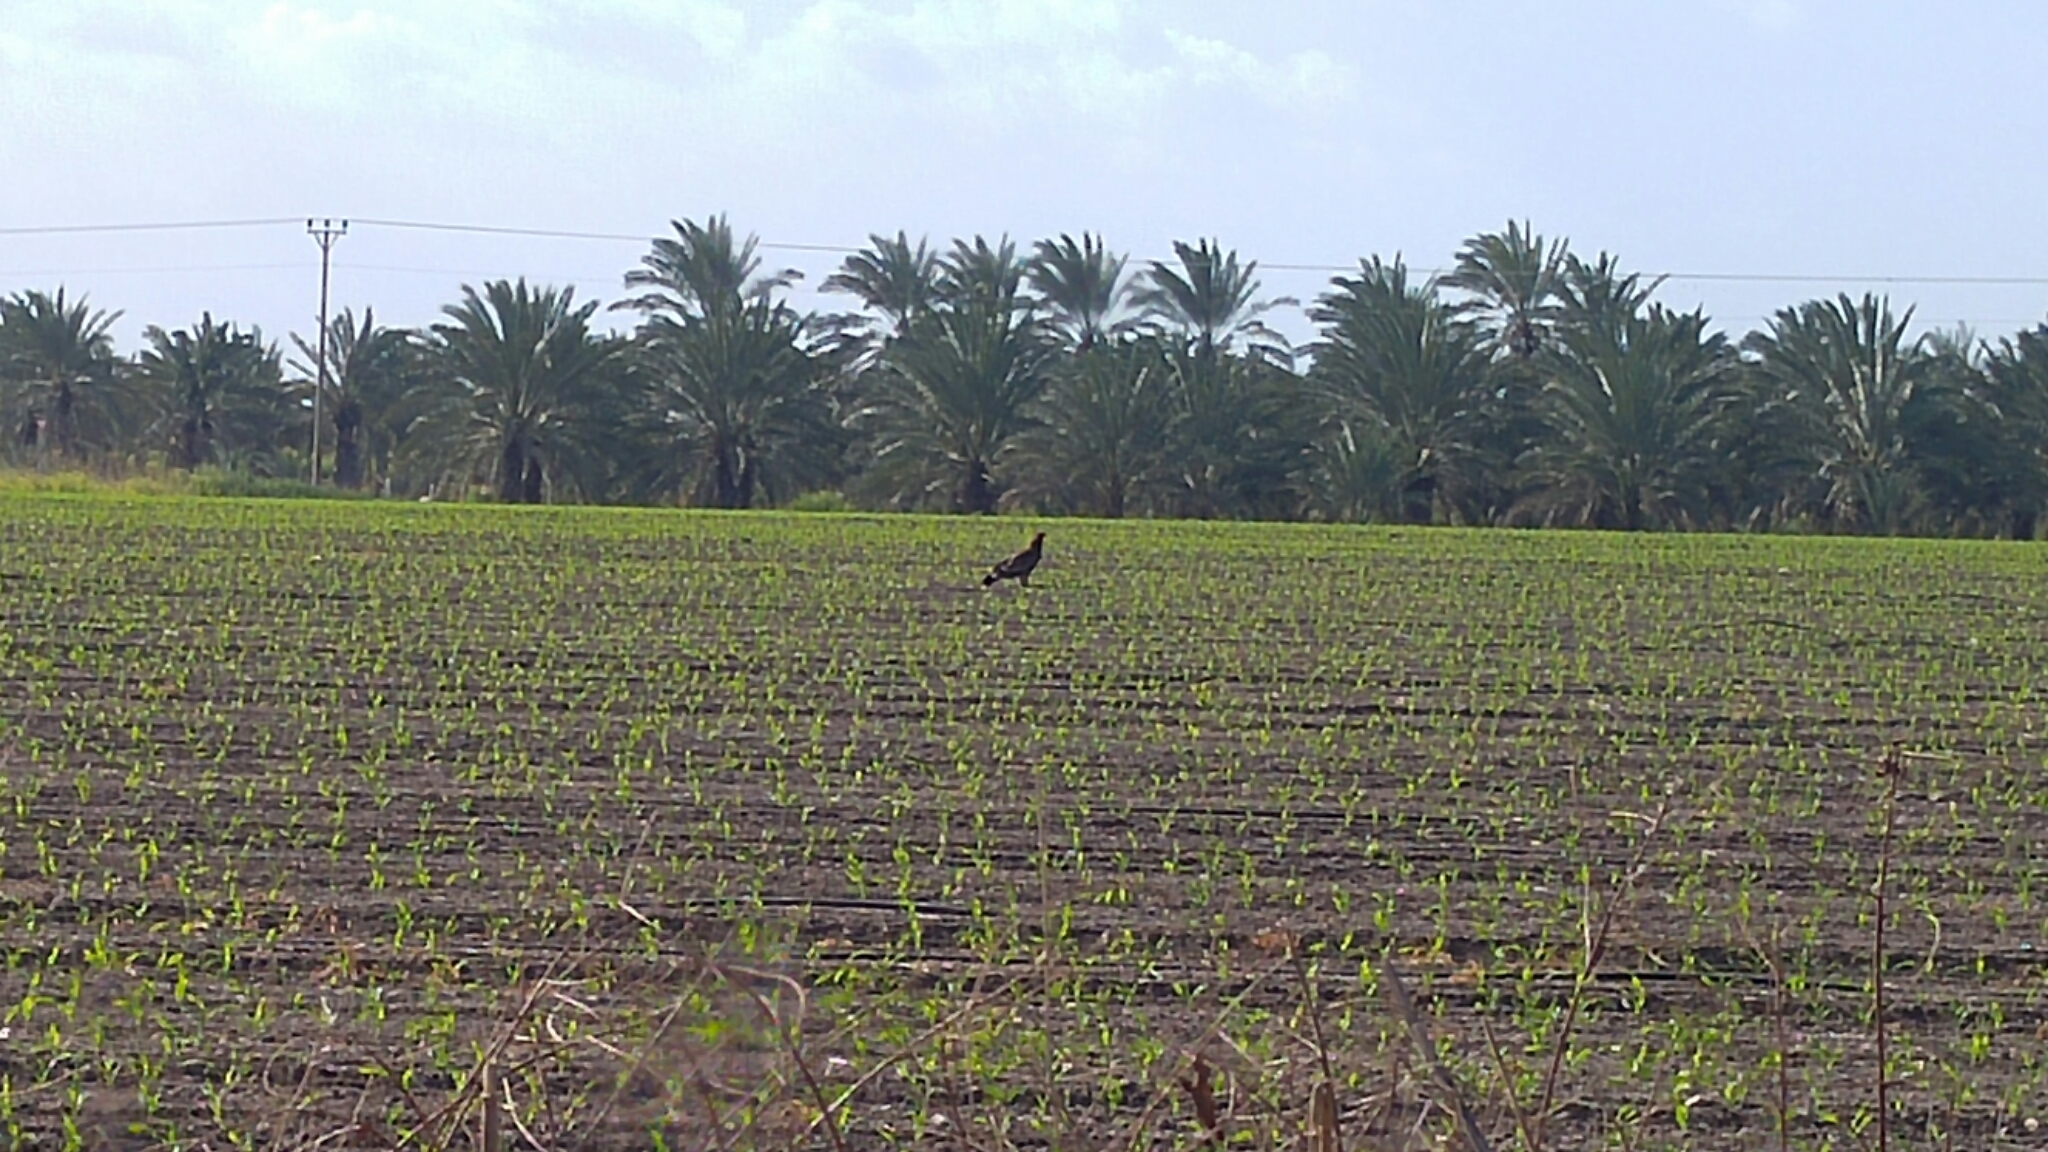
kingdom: Animalia
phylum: Chordata
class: Aves
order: Accipitriformes
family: Accipitridae
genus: Aquila
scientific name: Aquila nipalensis
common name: Steppe eagle
